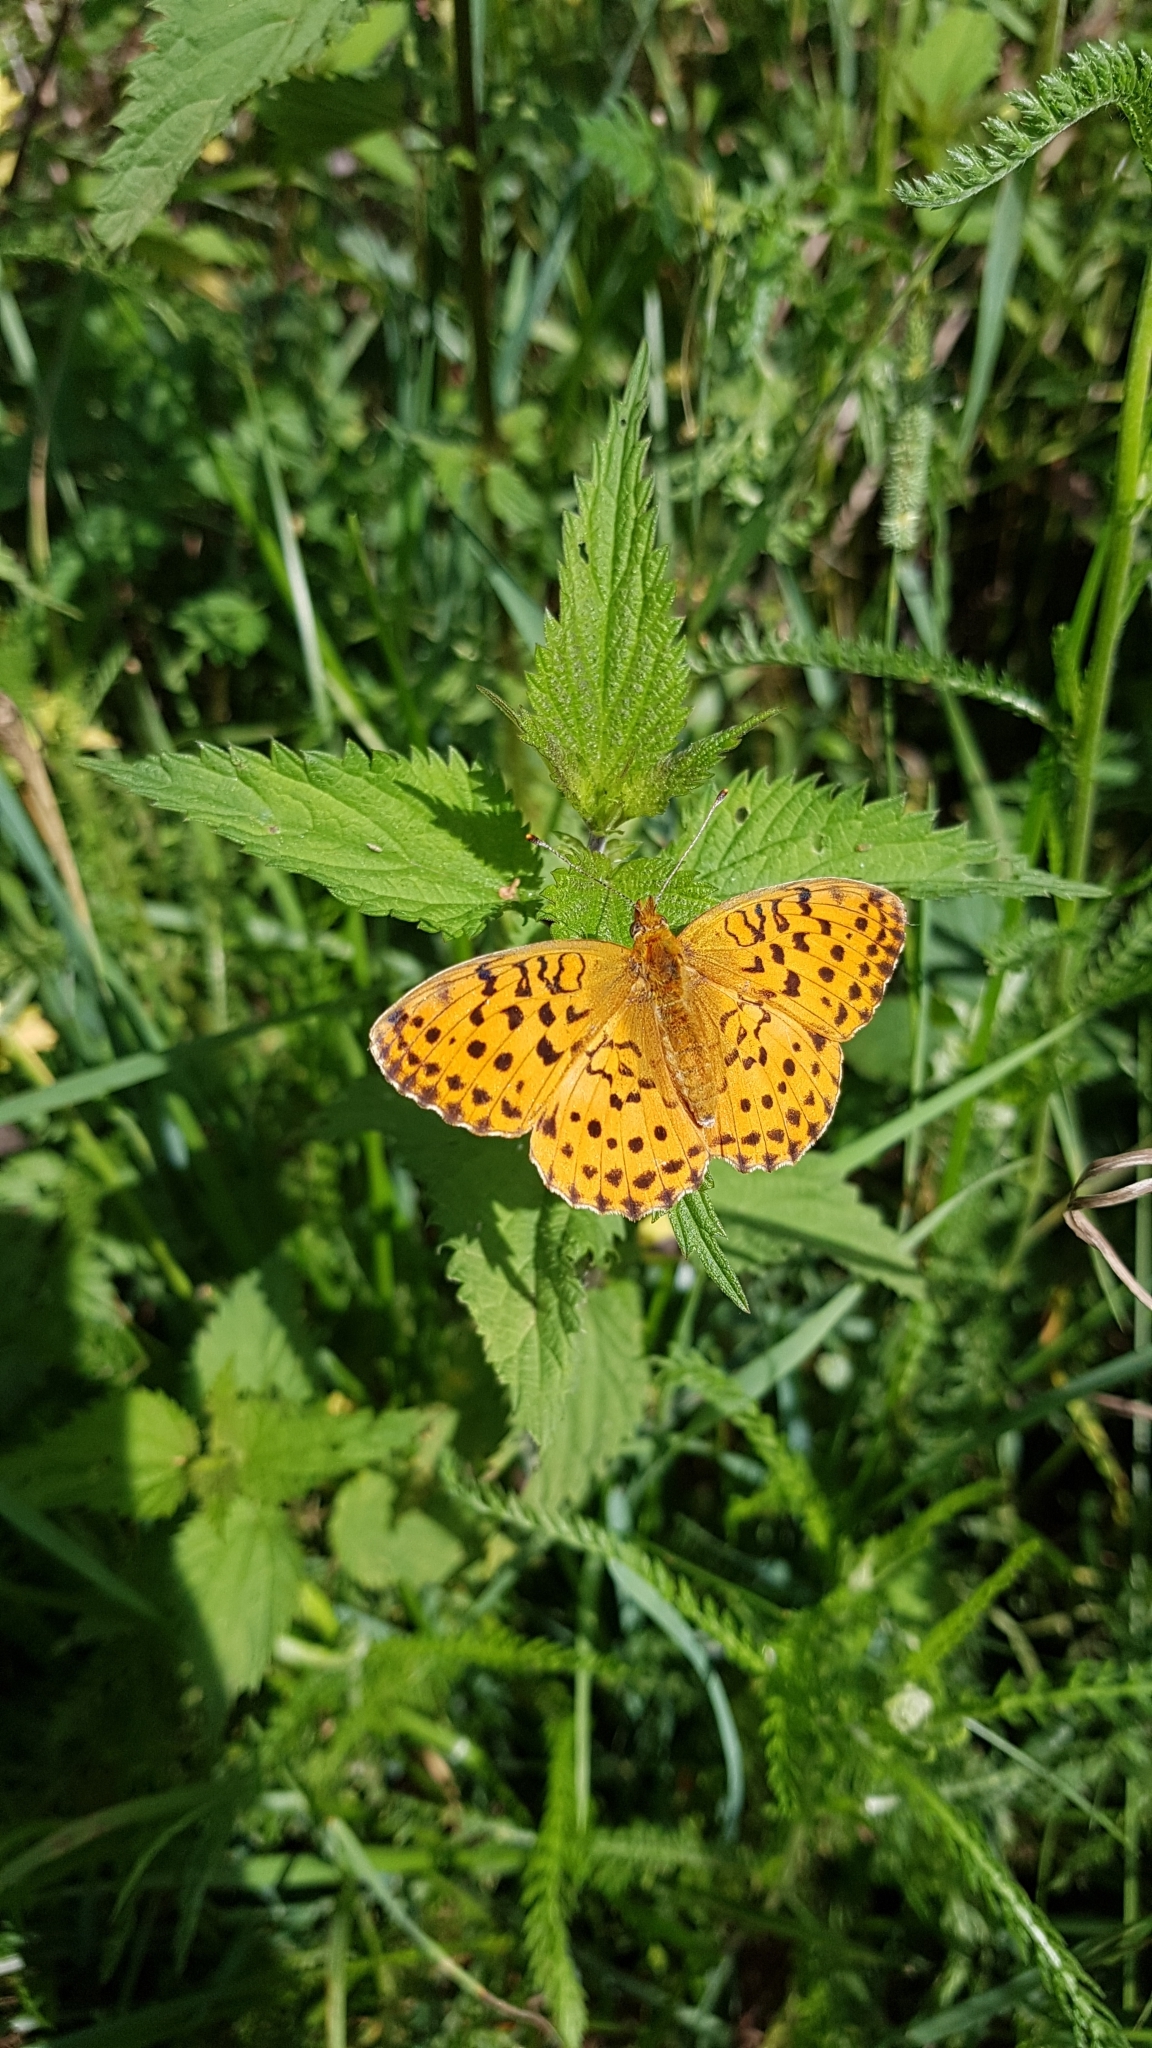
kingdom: Animalia
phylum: Arthropoda
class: Insecta
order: Lepidoptera
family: Nymphalidae
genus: Brenthis
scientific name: Brenthis daphne
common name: Marbled fritillary
